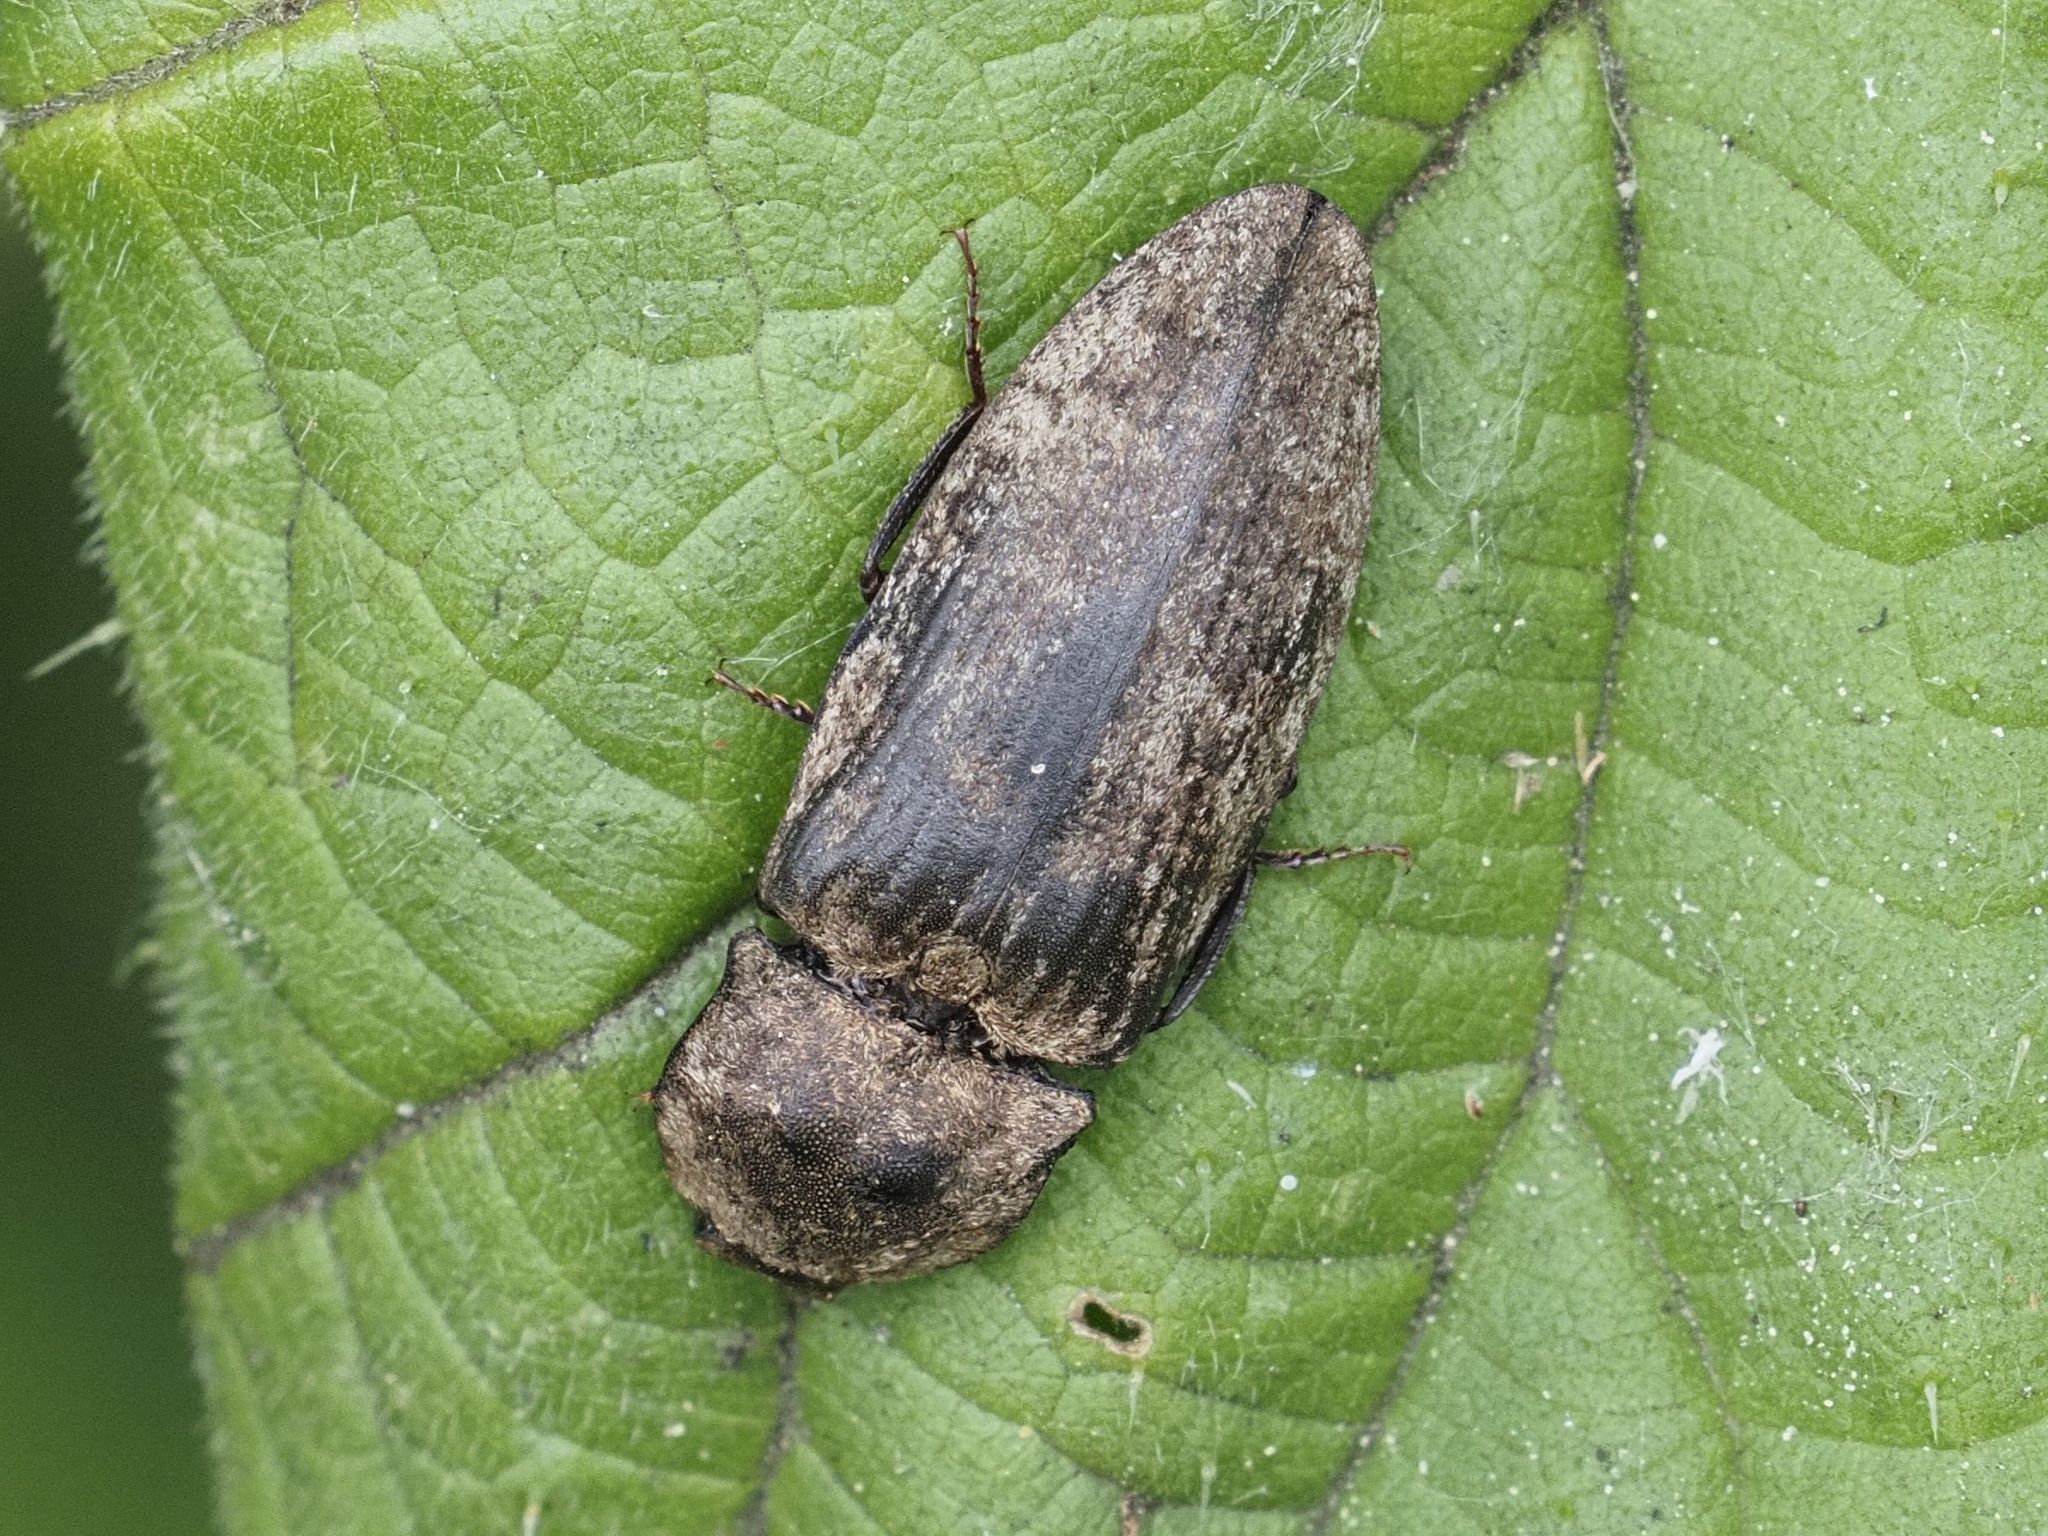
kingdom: Animalia
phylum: Arthropoda
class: Insecta
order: Coleoptera
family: Elateridae
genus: Agrypnus
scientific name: Agrypnus murinus
